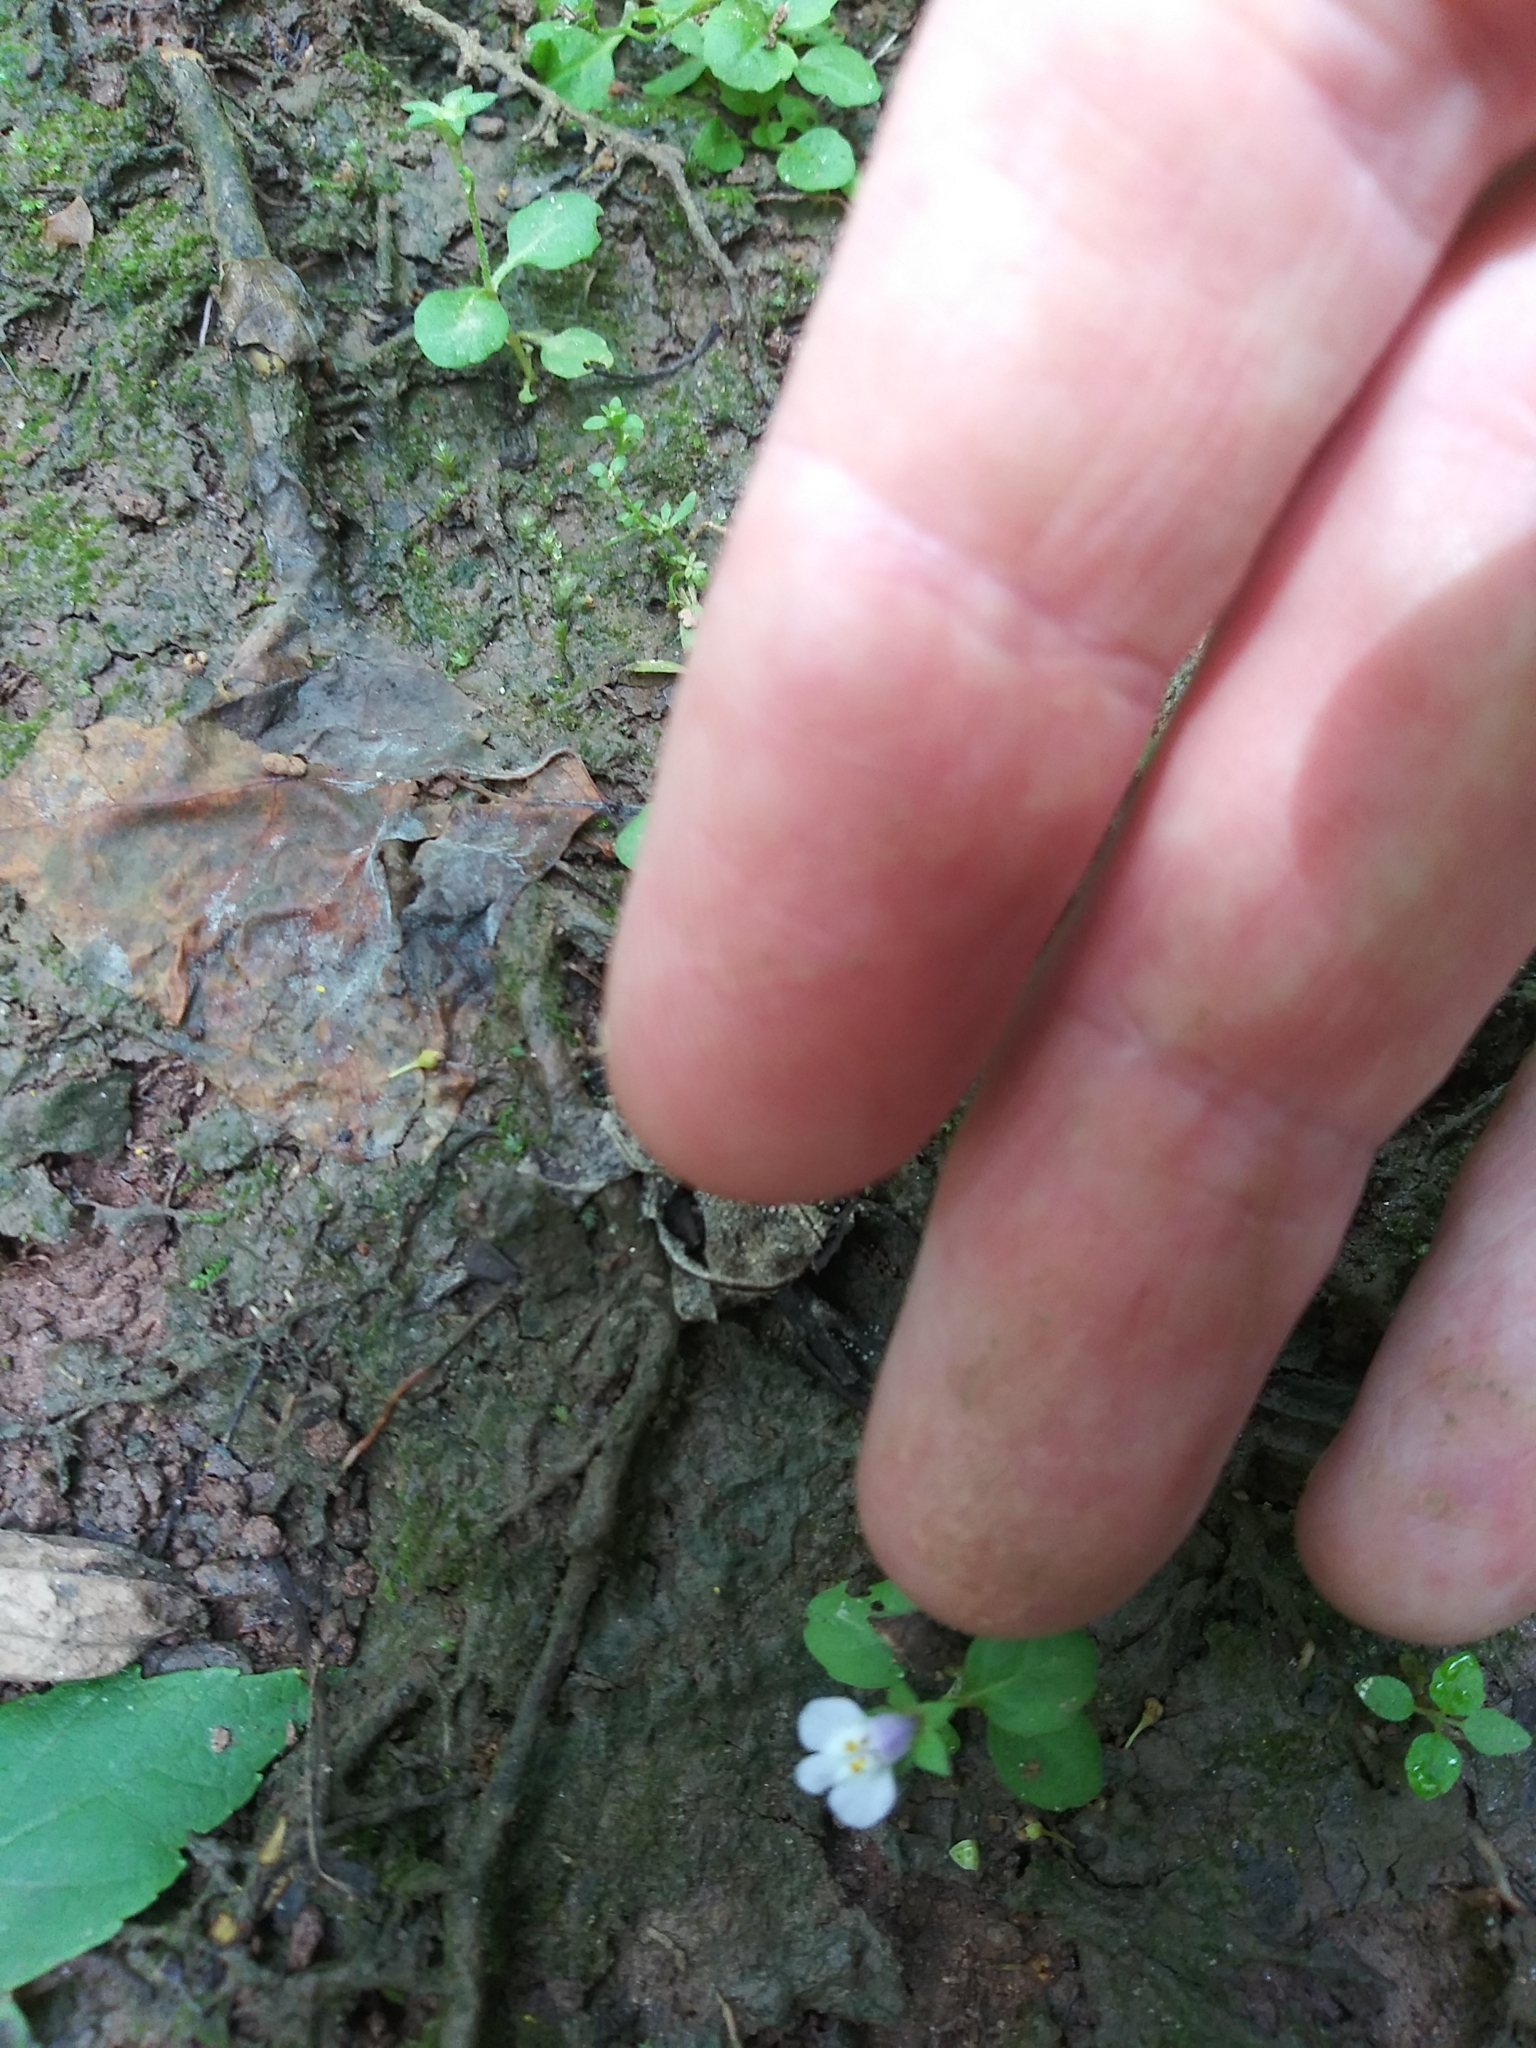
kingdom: Plantae
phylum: Tracheophyta
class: Magnoliopsida
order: Lamiales
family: Mazaceae
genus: Mazus
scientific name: Mazus pumilus
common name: Japanese mazus
